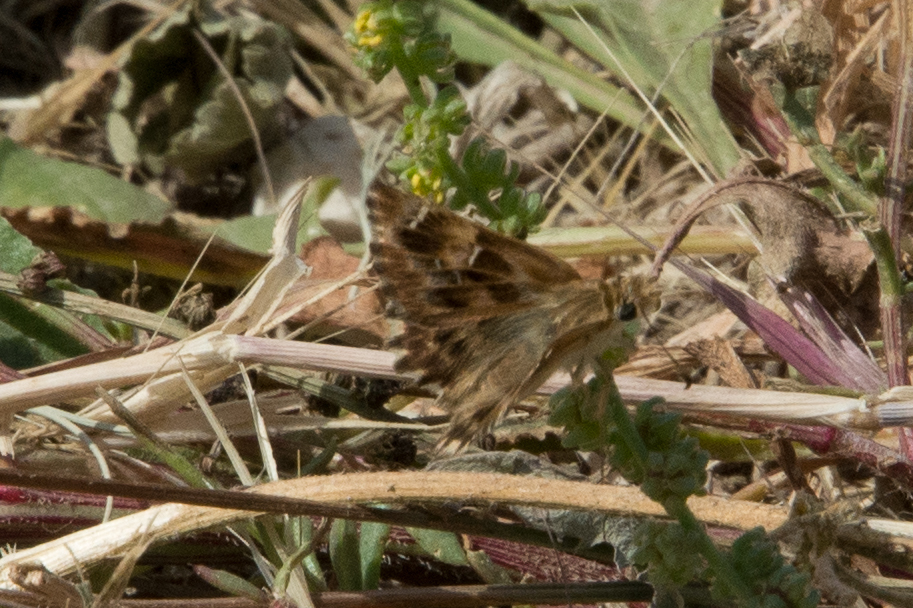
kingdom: Animalia
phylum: Arthropoda
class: Insecta
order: Lepidoptera
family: Hesperiidae
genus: Carcharodus
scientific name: Carcharodus alceae
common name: Mallow skipper
